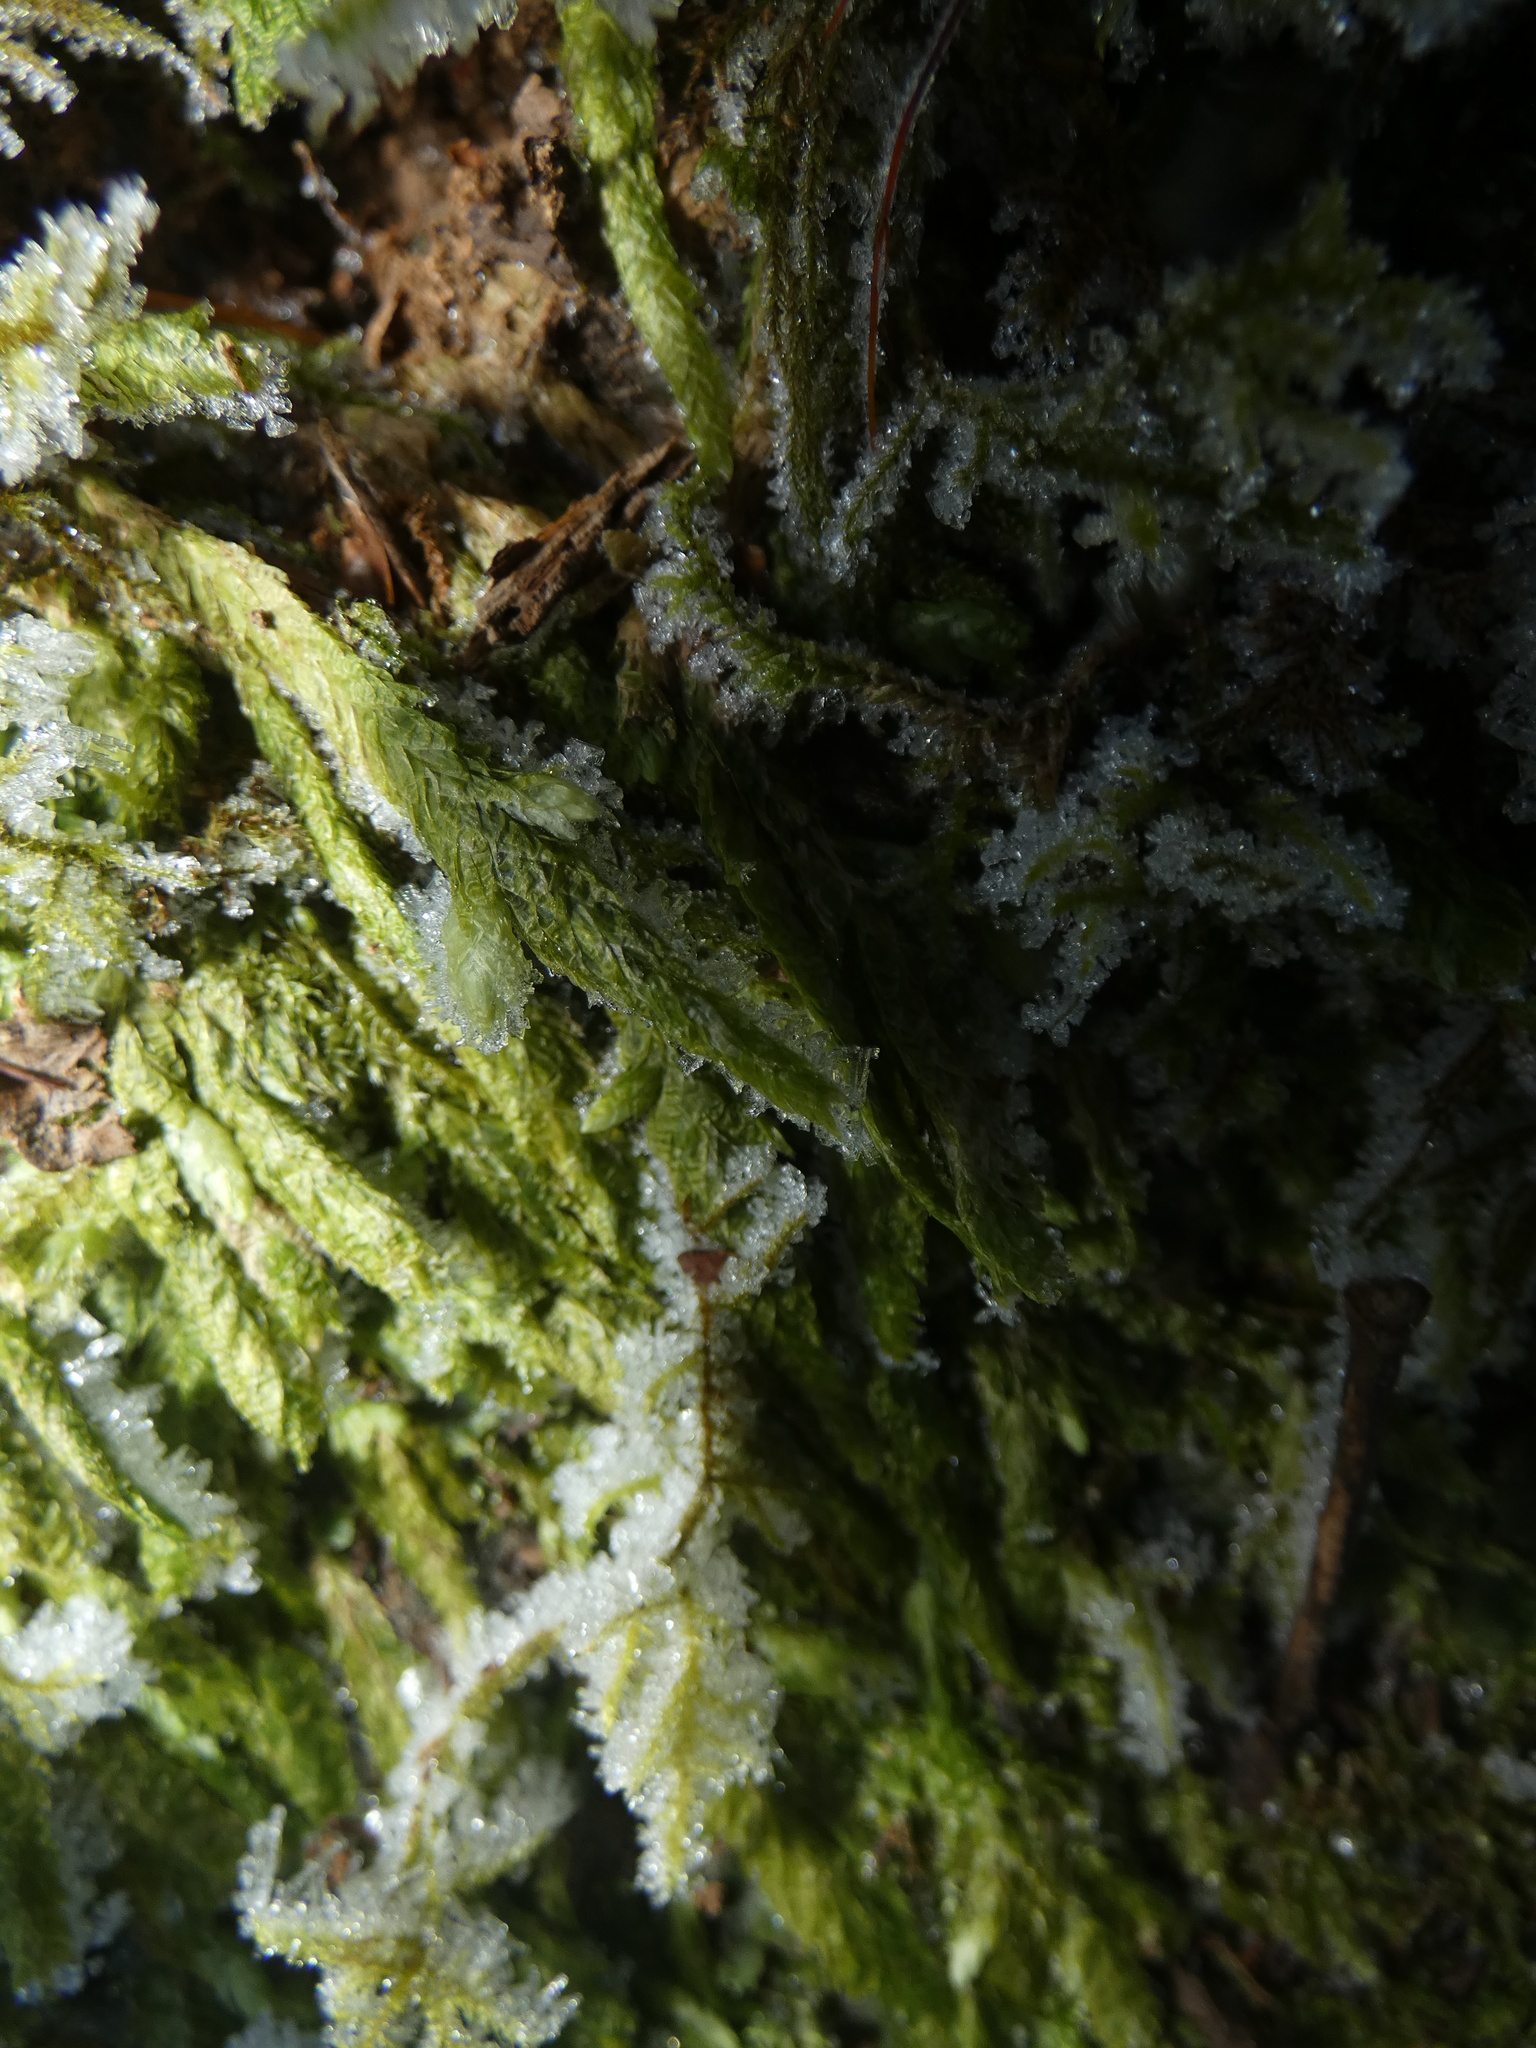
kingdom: Plantae
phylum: Bryophyta
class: Bryopsida
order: Hypnales
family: Plagiotheciaceae
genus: Plagiothecium
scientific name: Plagiothecium undulatum
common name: Waved silk-moss
